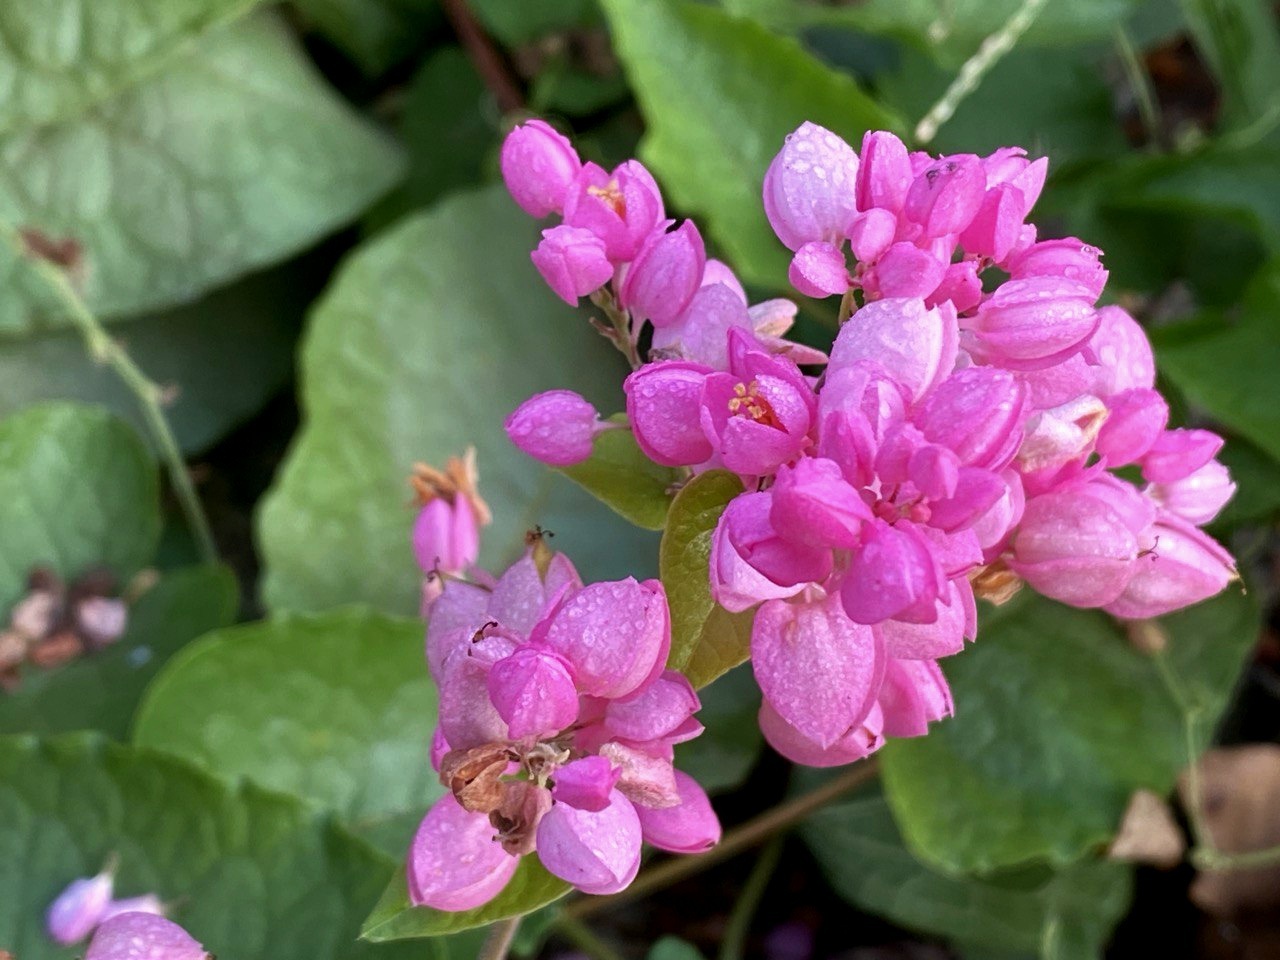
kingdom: Plantae
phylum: Tracheophyta
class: Magnoliopsida
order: Caryophyllales
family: Polygonaceae
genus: Antigonon
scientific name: Antigonon leptopus
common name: Coral vine
